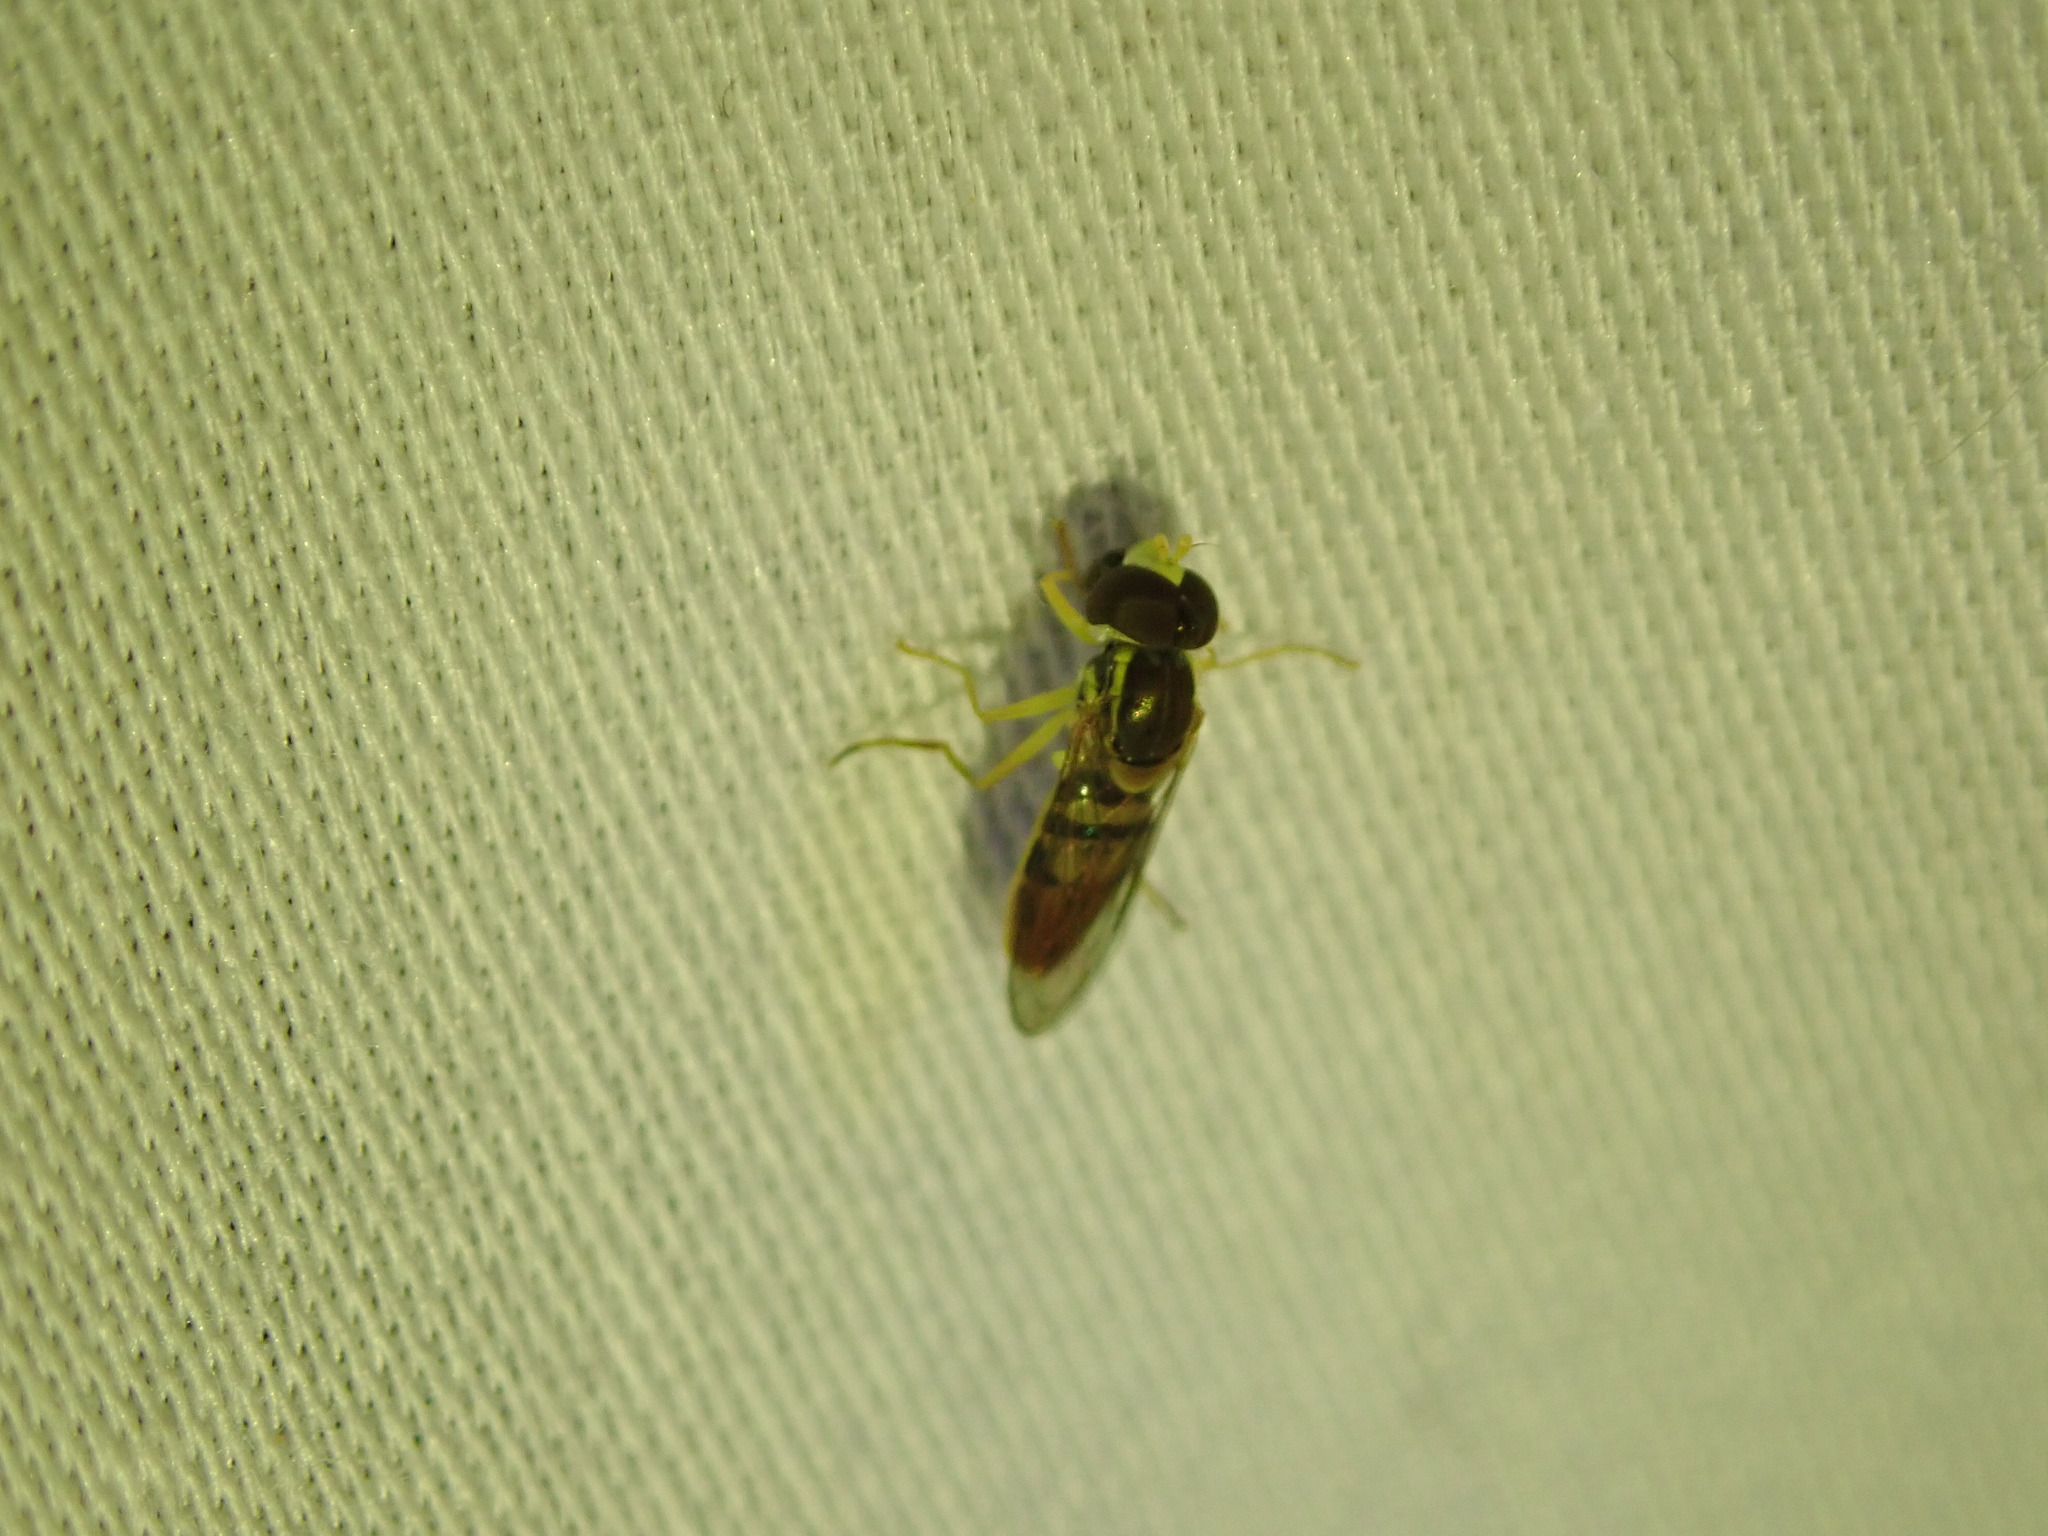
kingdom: Animalia
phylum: Arthropoda
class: Insecta
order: Diptera
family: Syrphidae
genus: Toxomerus
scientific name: Toxomerus marginatus
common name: Syrphid fly
